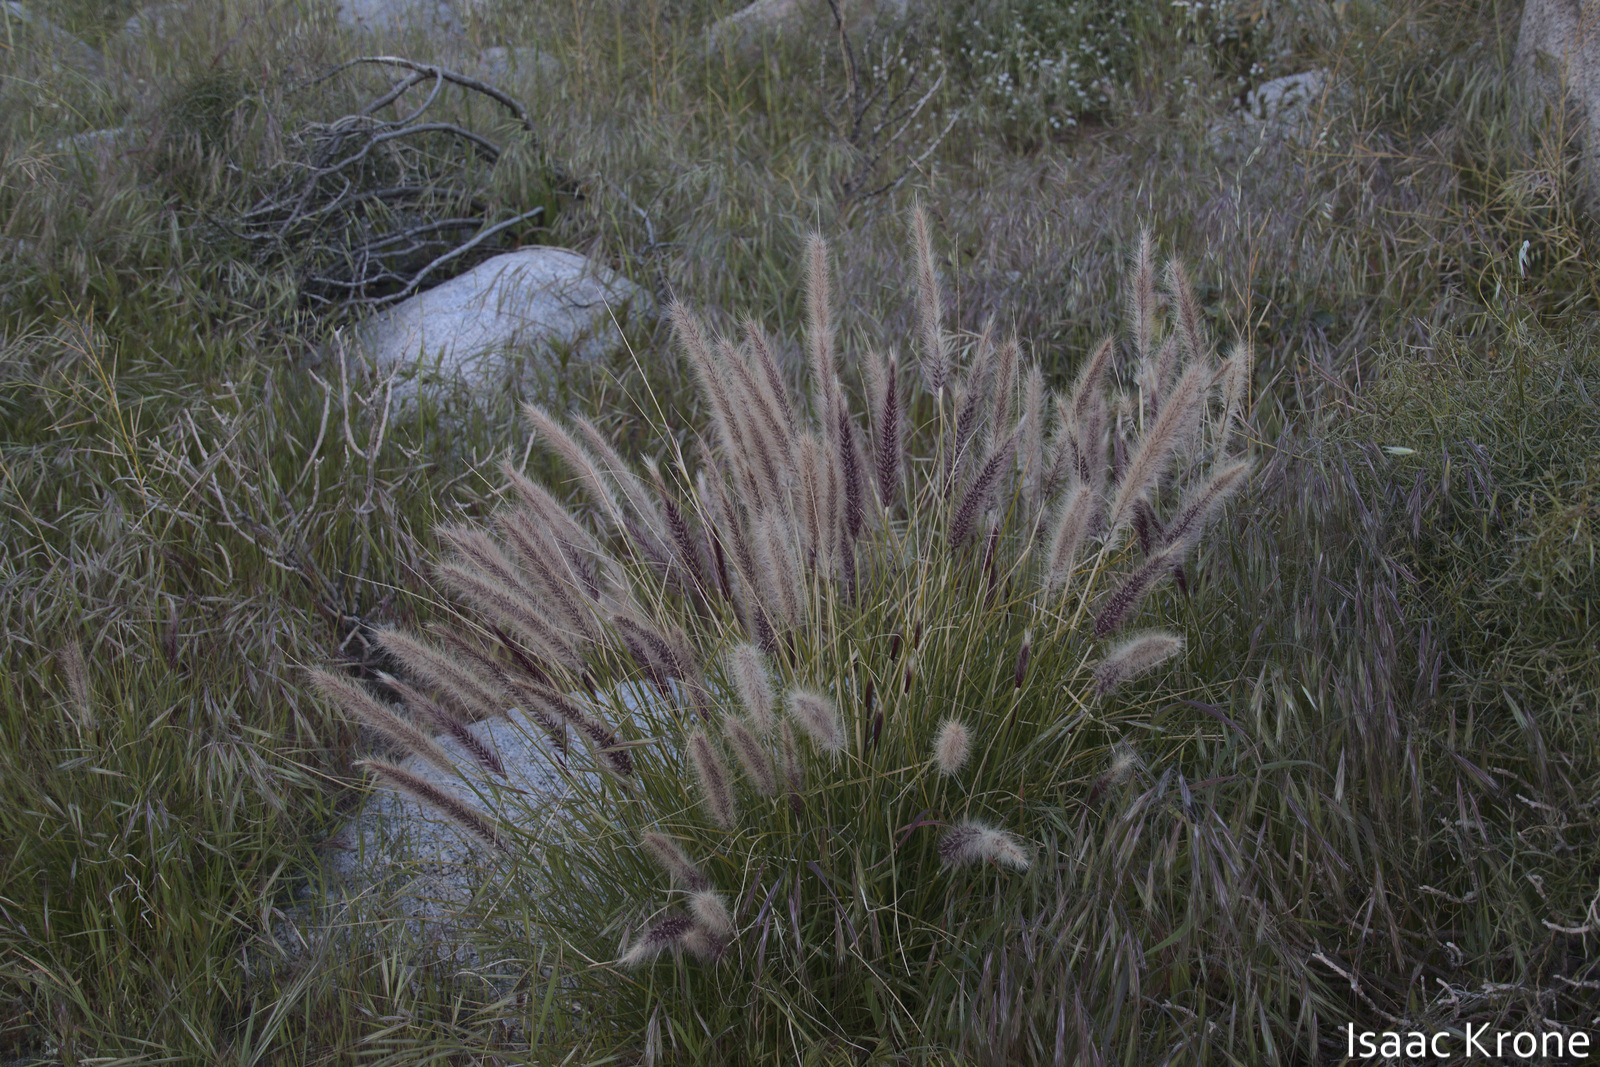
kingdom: Plantae
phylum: Tracheophyta
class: Liliopsida
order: Poales
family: Poaceae
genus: Cenchrus
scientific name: Cenchrus setaceus
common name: Crimson fountaingrass
